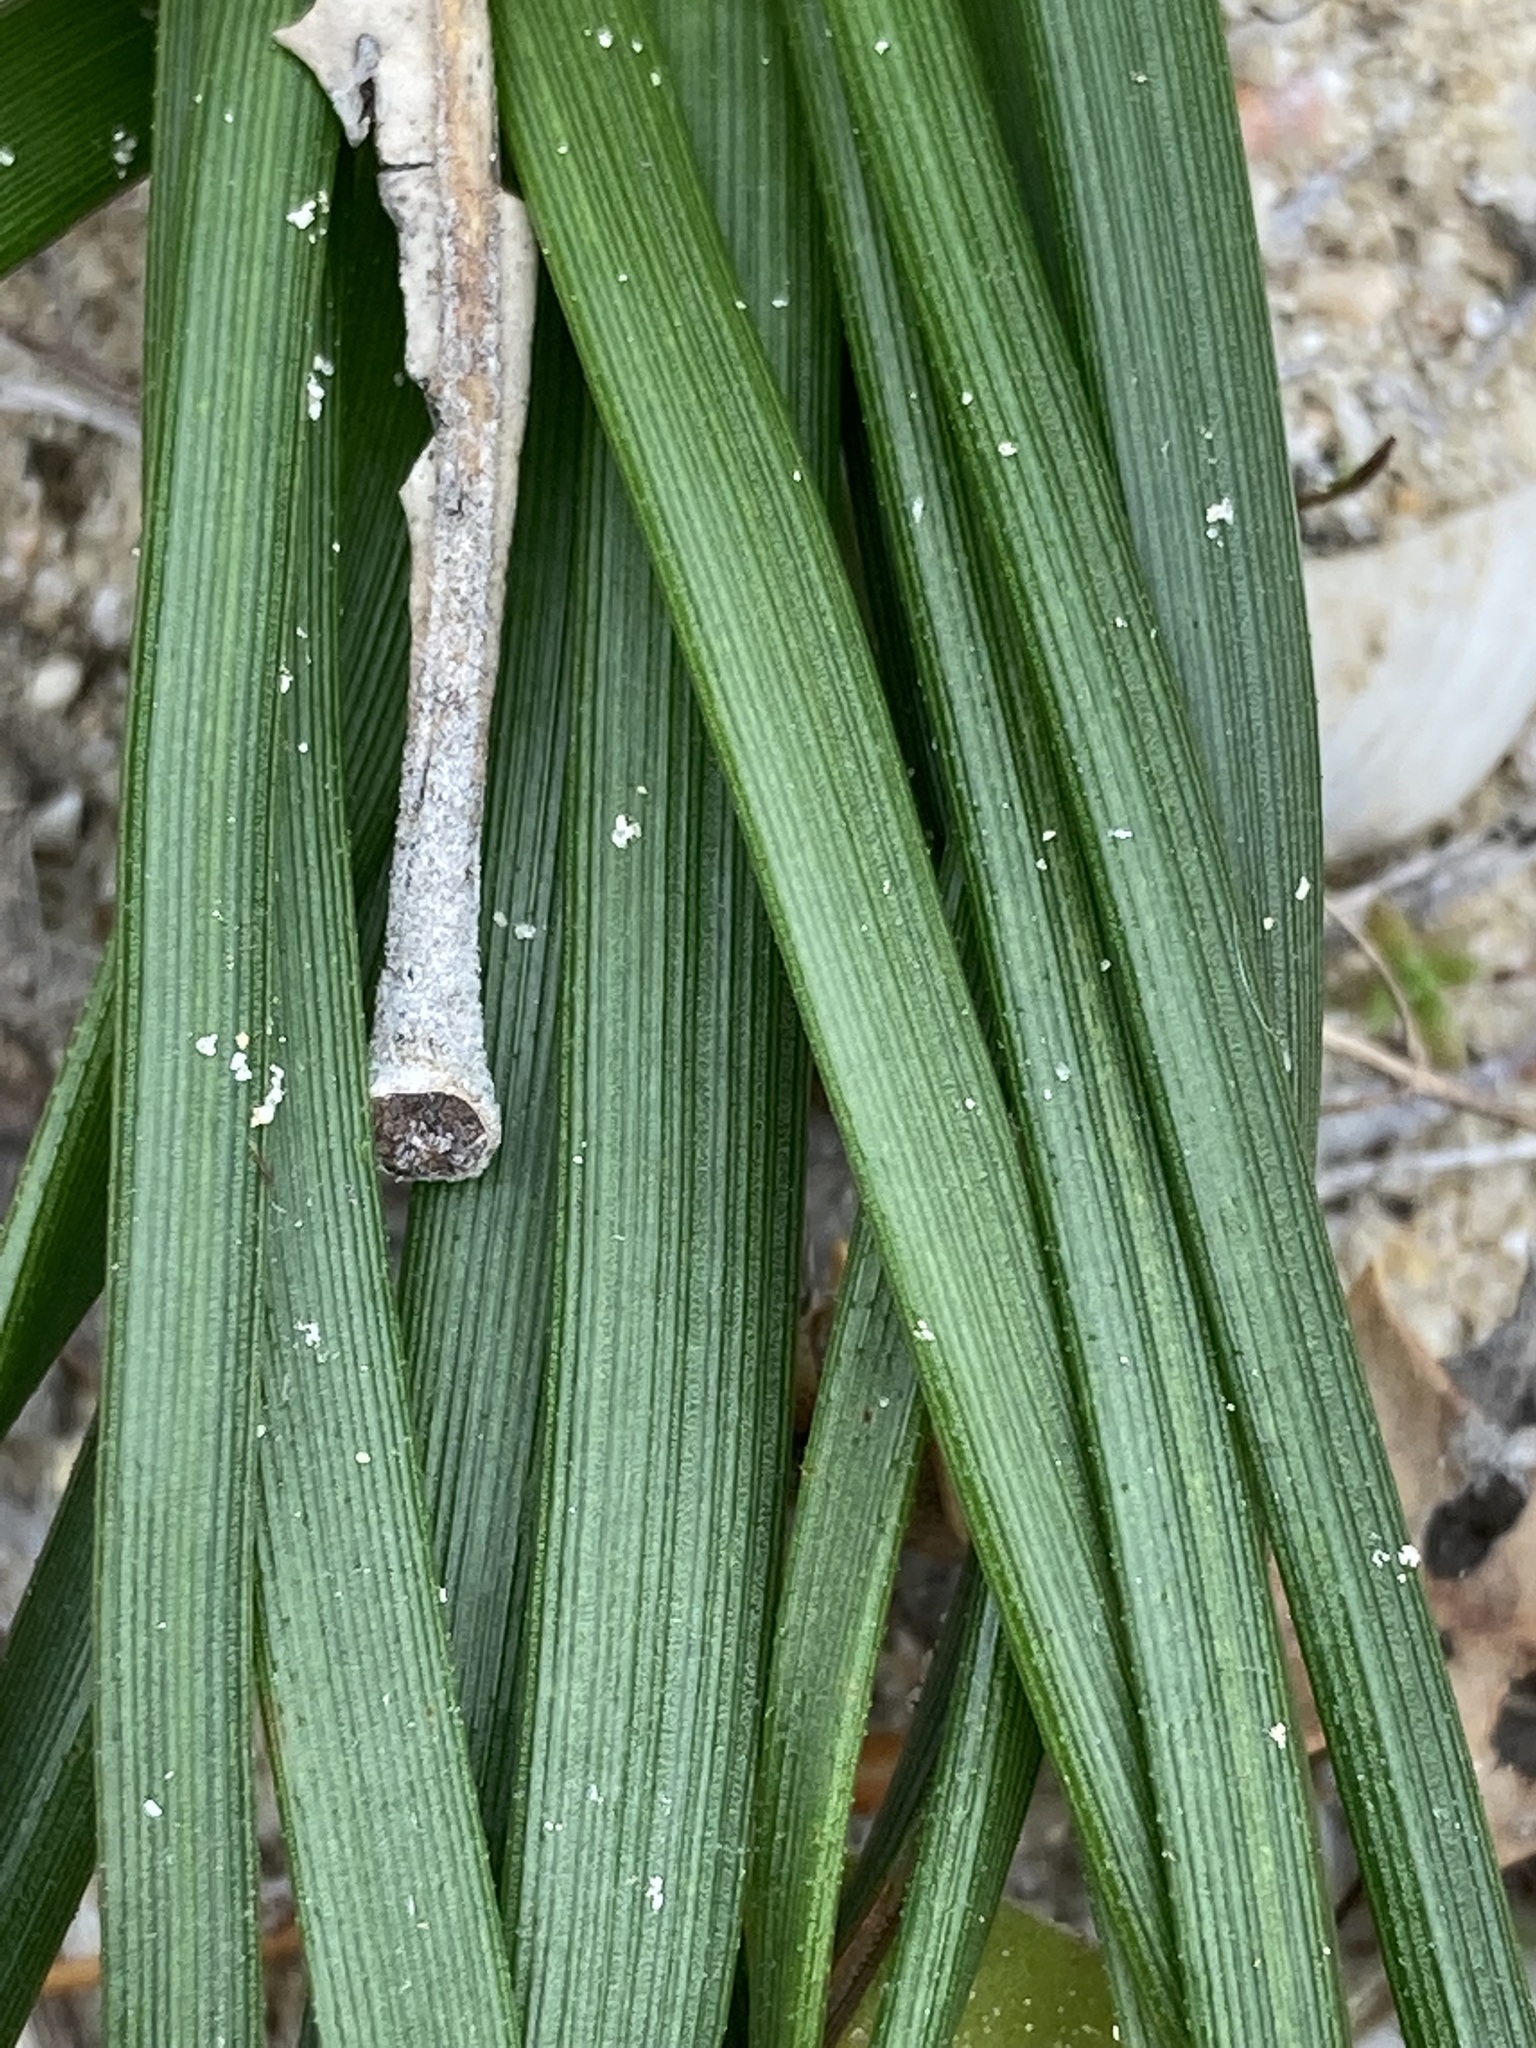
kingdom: Plantae
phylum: Tracheophyta
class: Liliopsida
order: Asparagales
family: Asphodelaceae
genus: Trachyandra
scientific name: Trachyandra divaricata
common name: Dune onionweed
